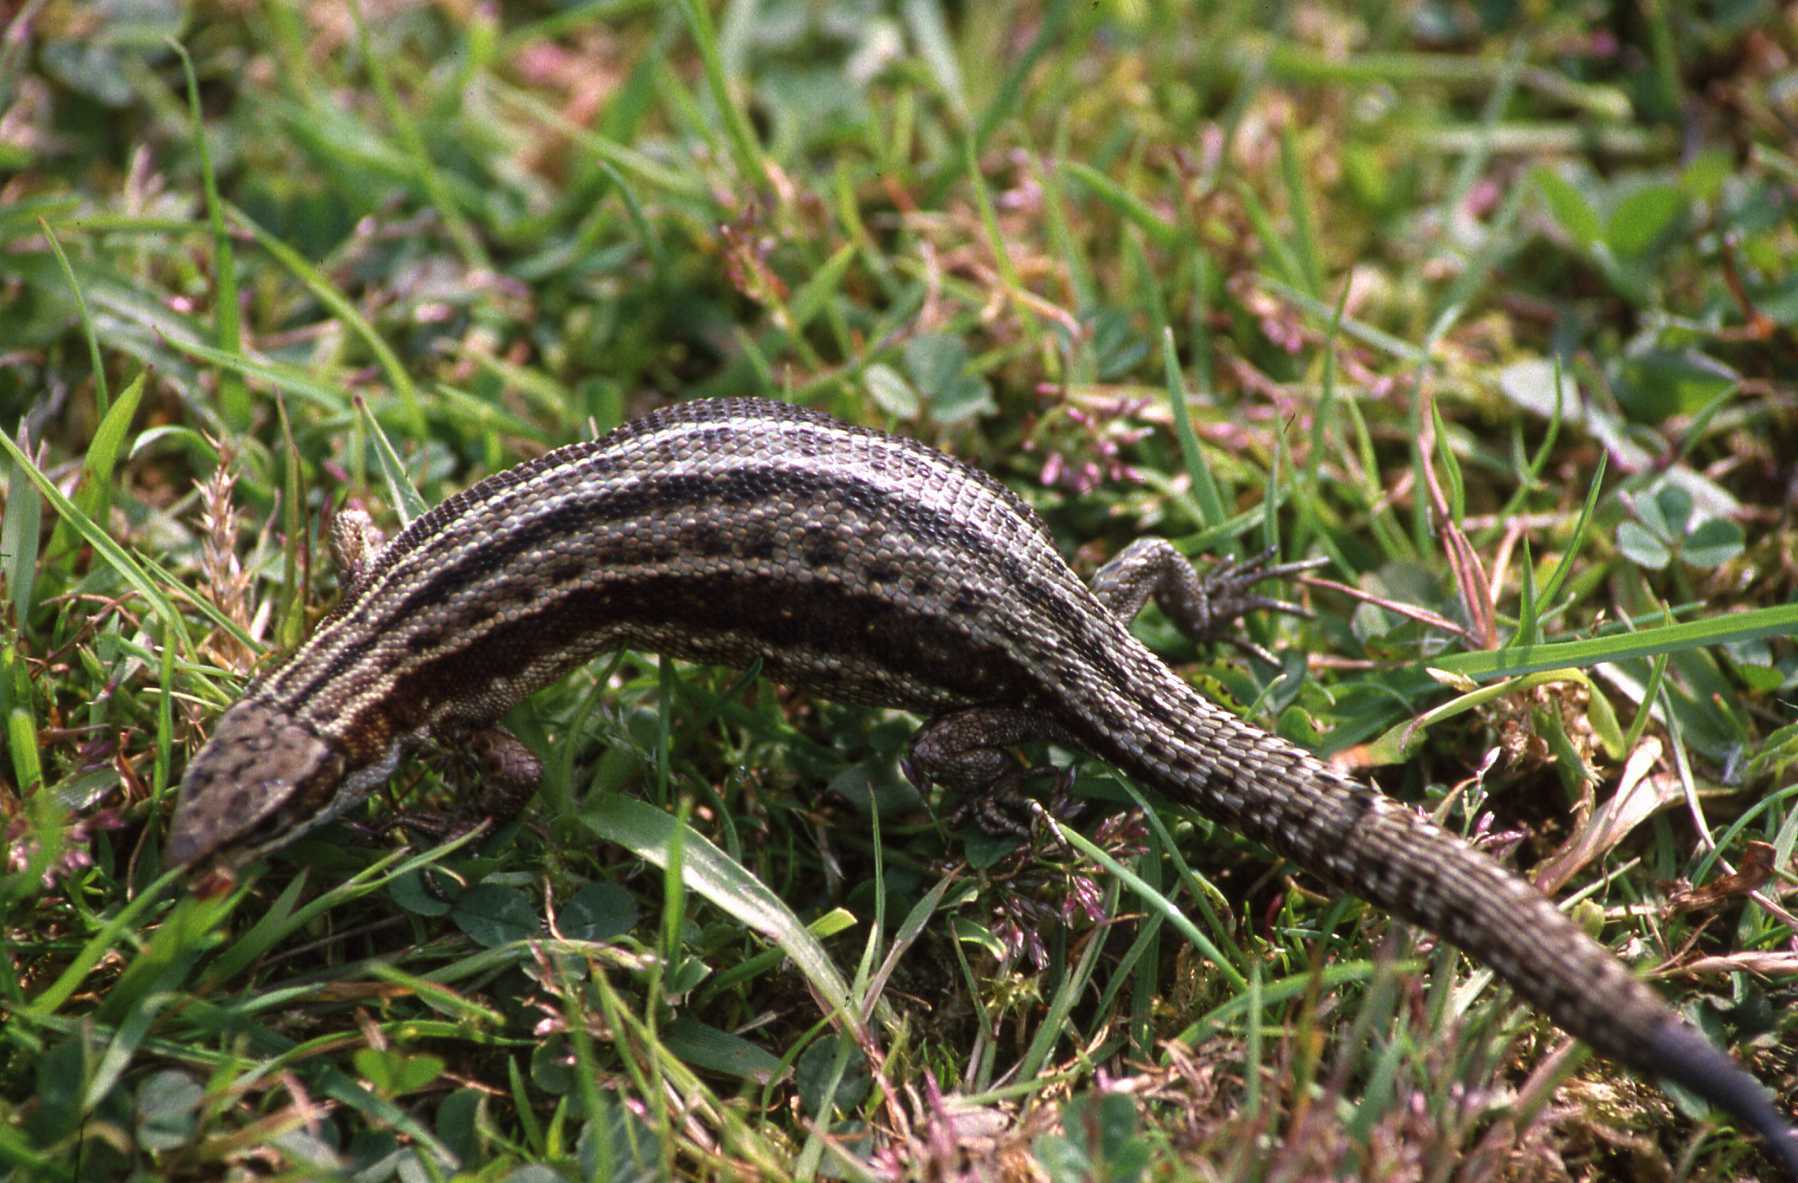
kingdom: Animalia
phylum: Chordata
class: Squamata
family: Lacertidae
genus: Zootoca
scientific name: Zootoca vivipara
